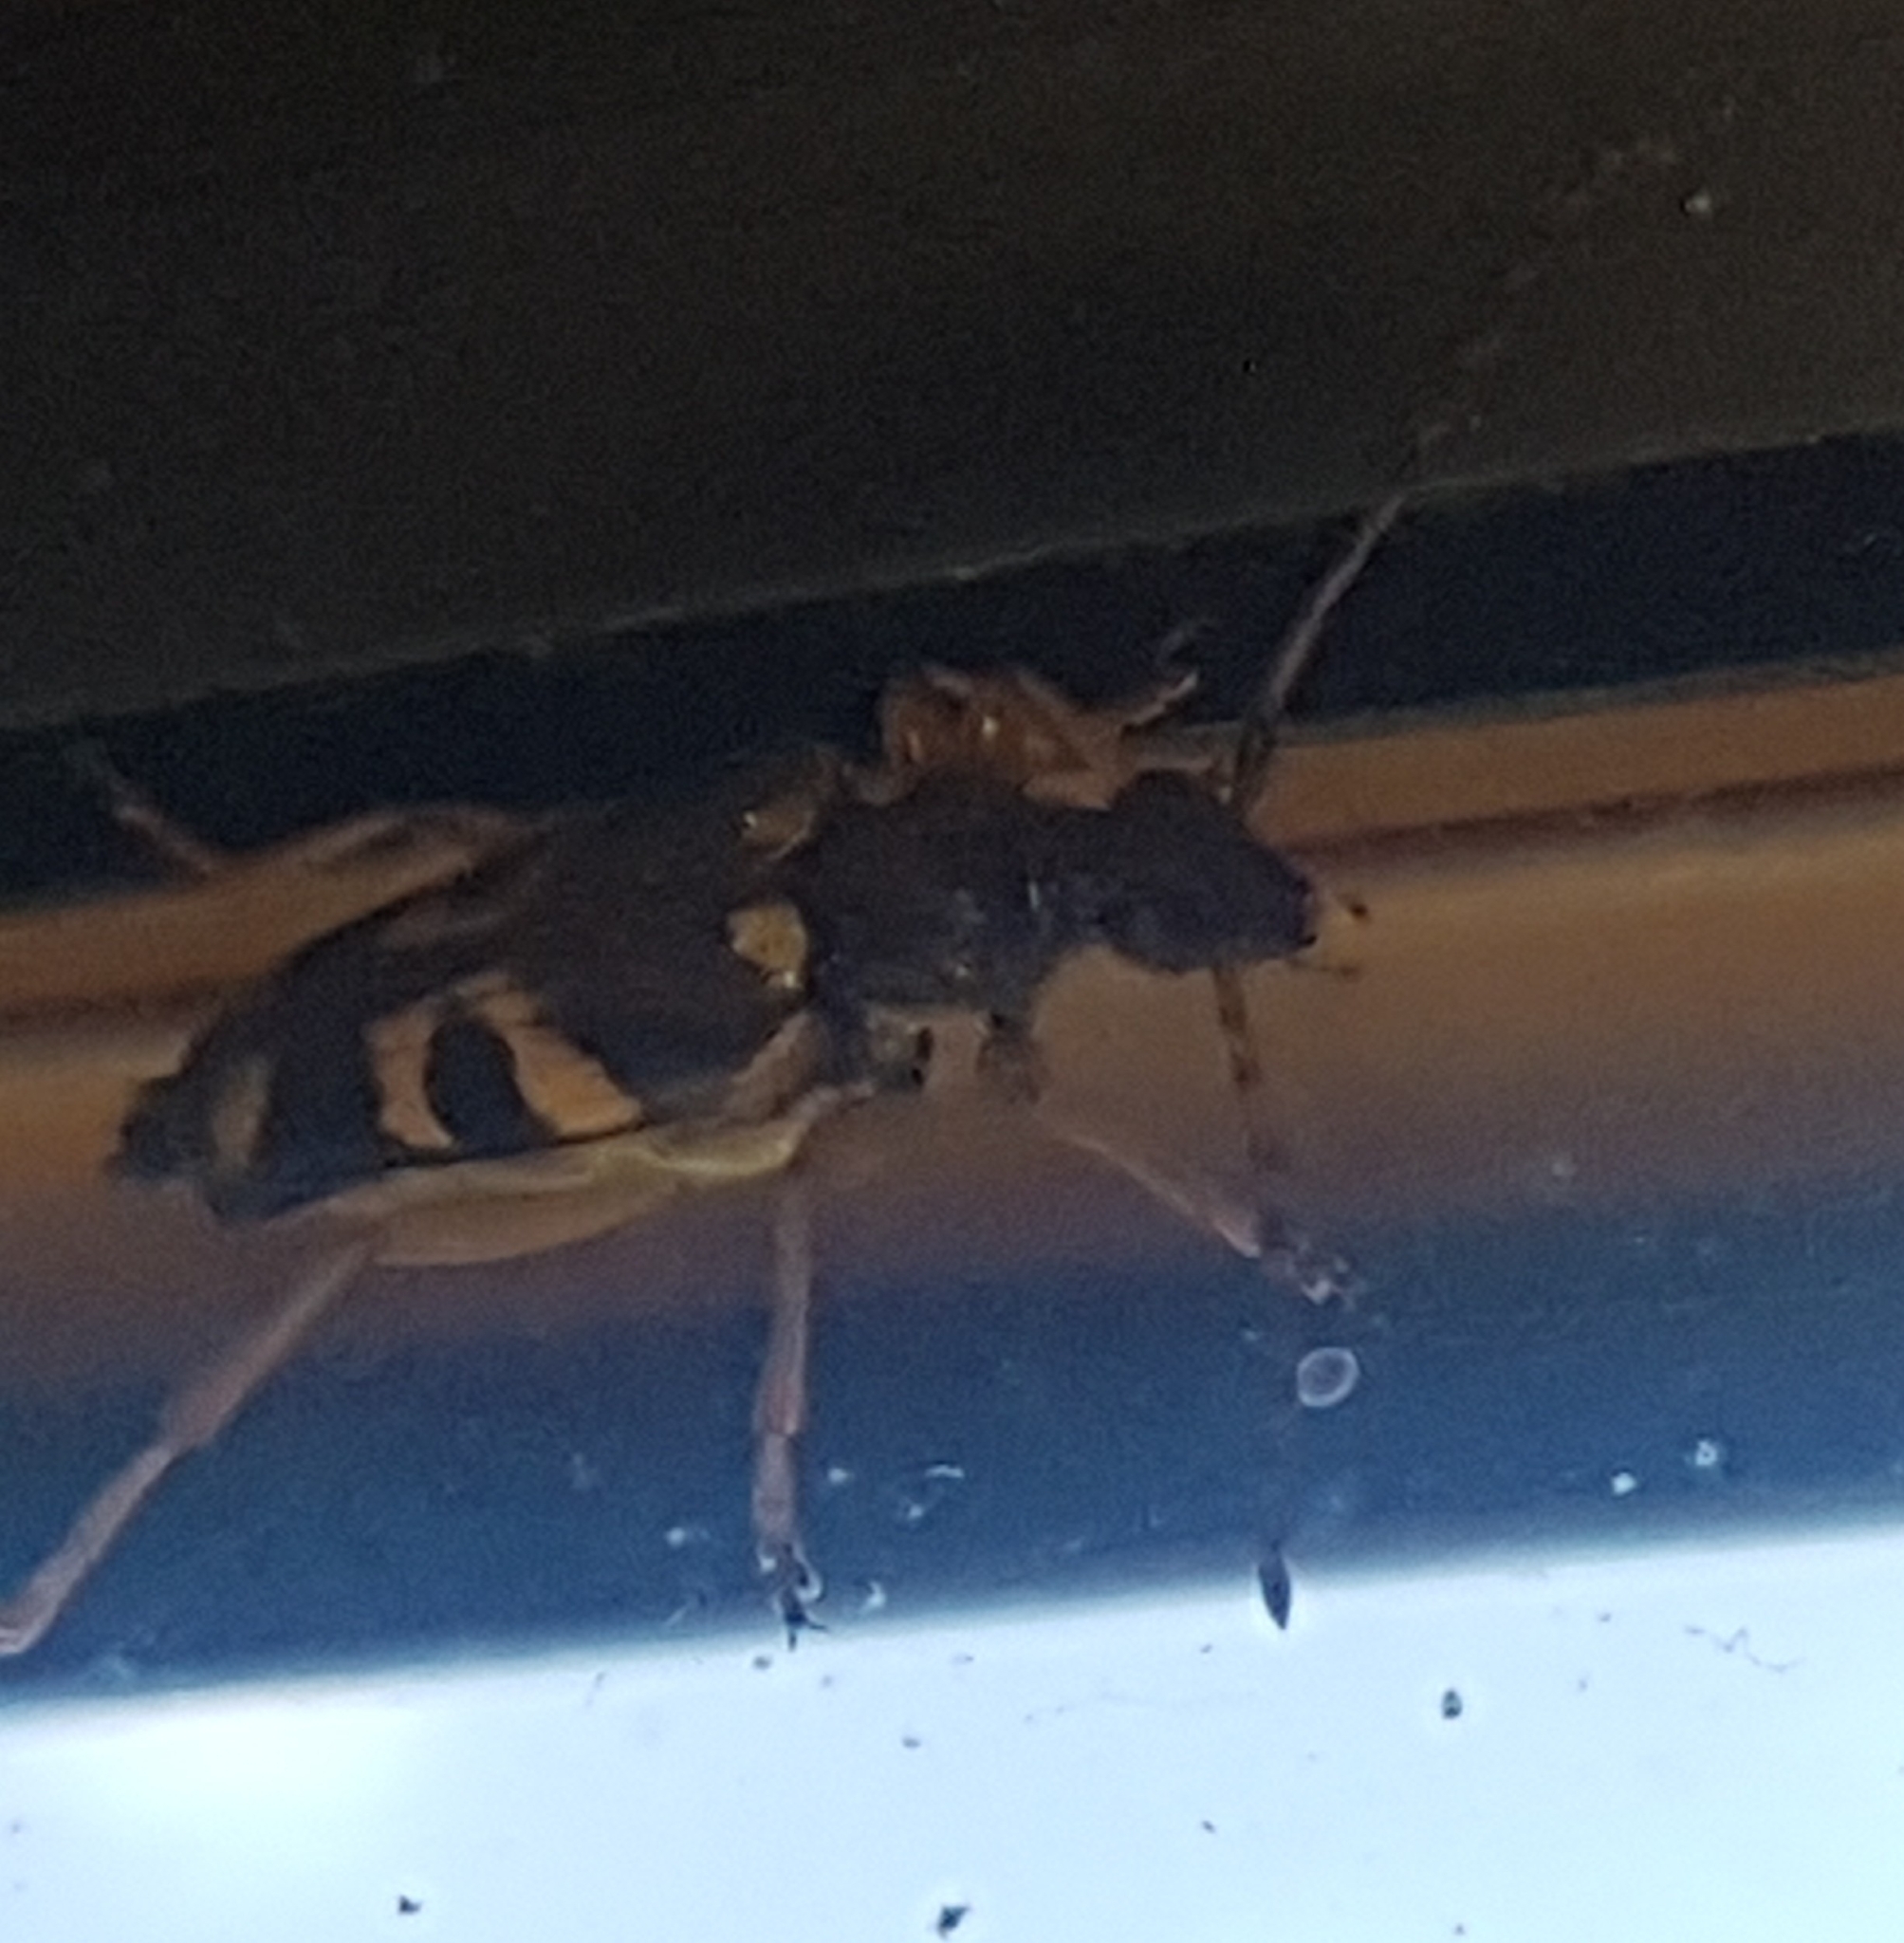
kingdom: Animalia
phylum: Arthropoda
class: Insecta
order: Coleoptera
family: Cerambycidae
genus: Xestoleptura
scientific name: Xestoleptura crassipes
